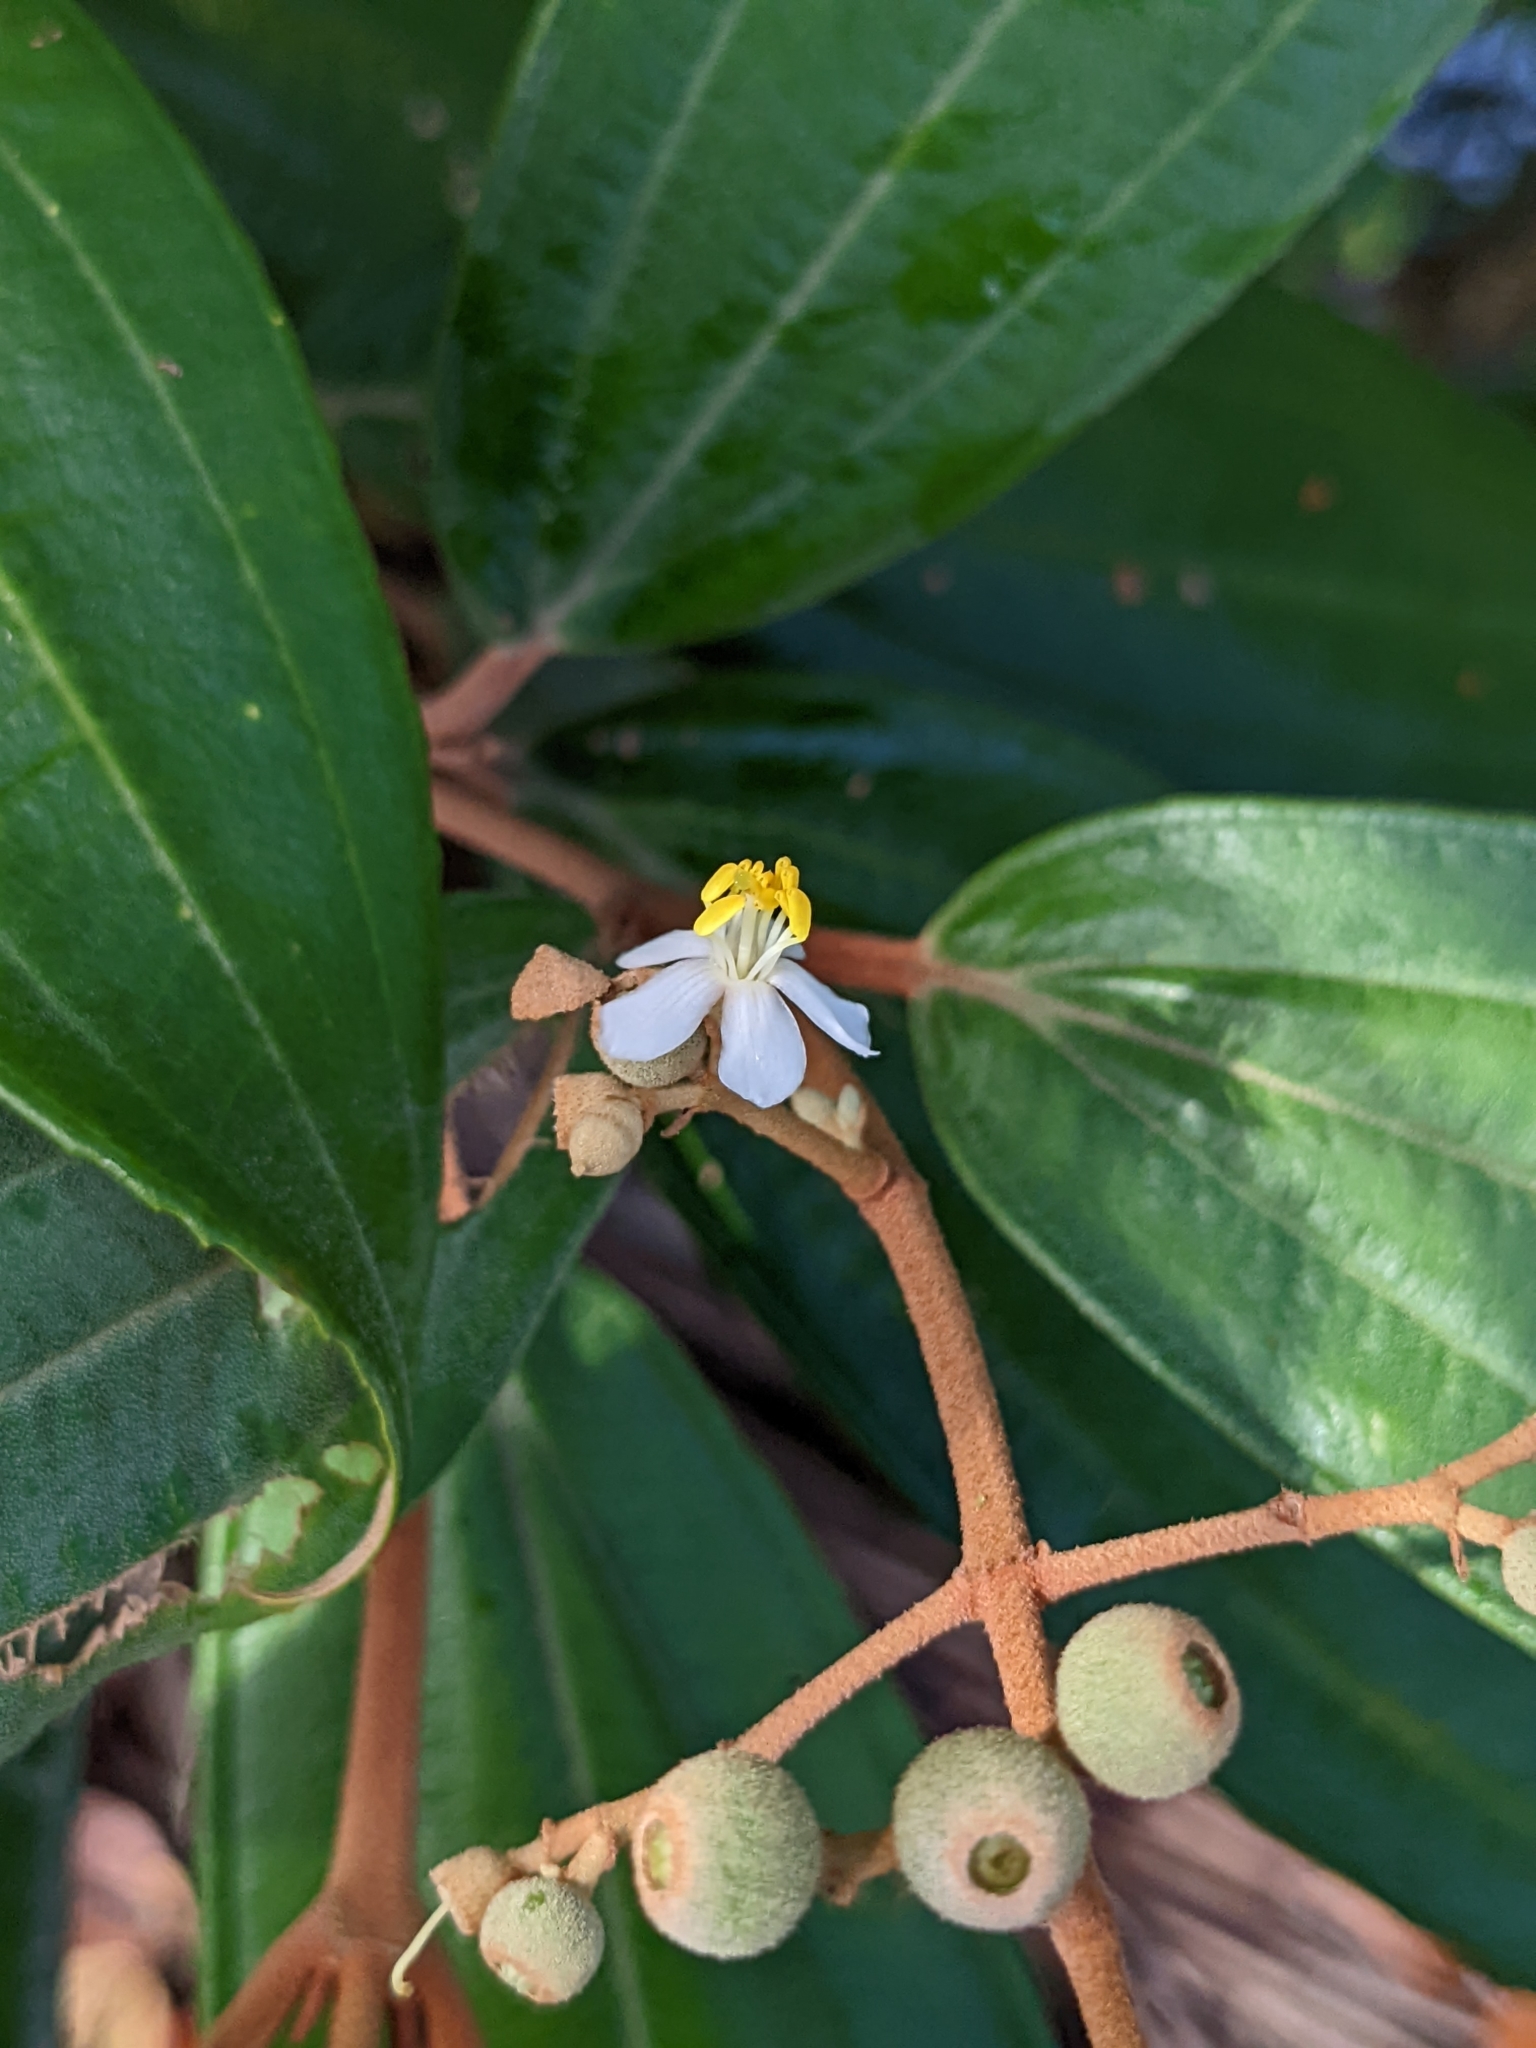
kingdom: Plantae
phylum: Tracheophyta
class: Magnoliopsida
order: Myrtales
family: Melastomataceae
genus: Miconia
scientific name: Miconia xalapensis
